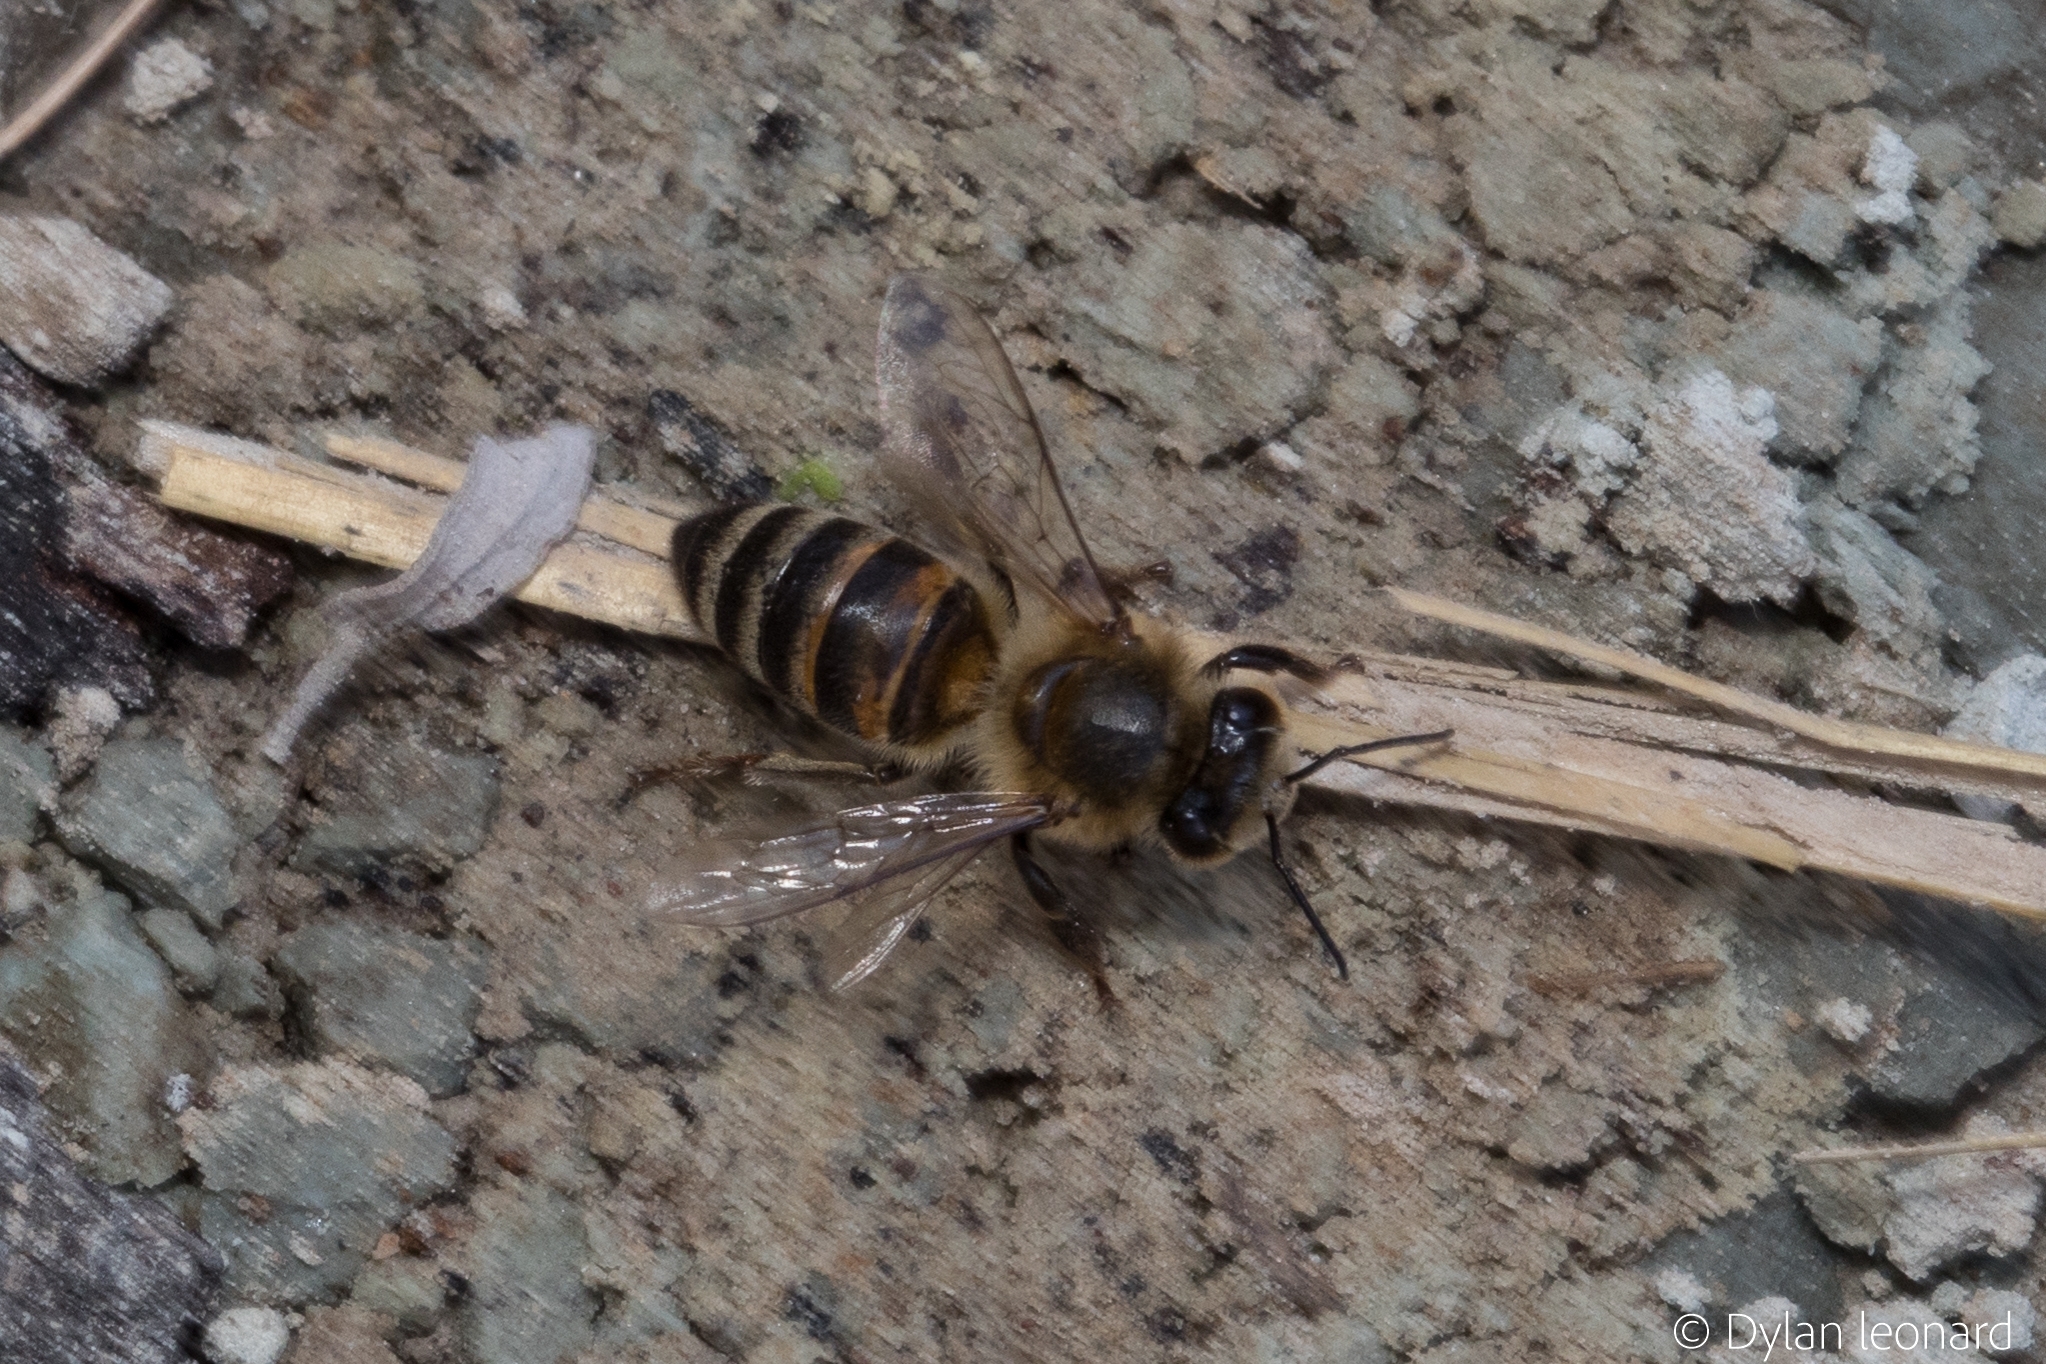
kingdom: Animalia
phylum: Arthropoda
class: Insecta
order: Hymenoptera
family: Apidae
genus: Apis
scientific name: Apis mellifera
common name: Honey bee
